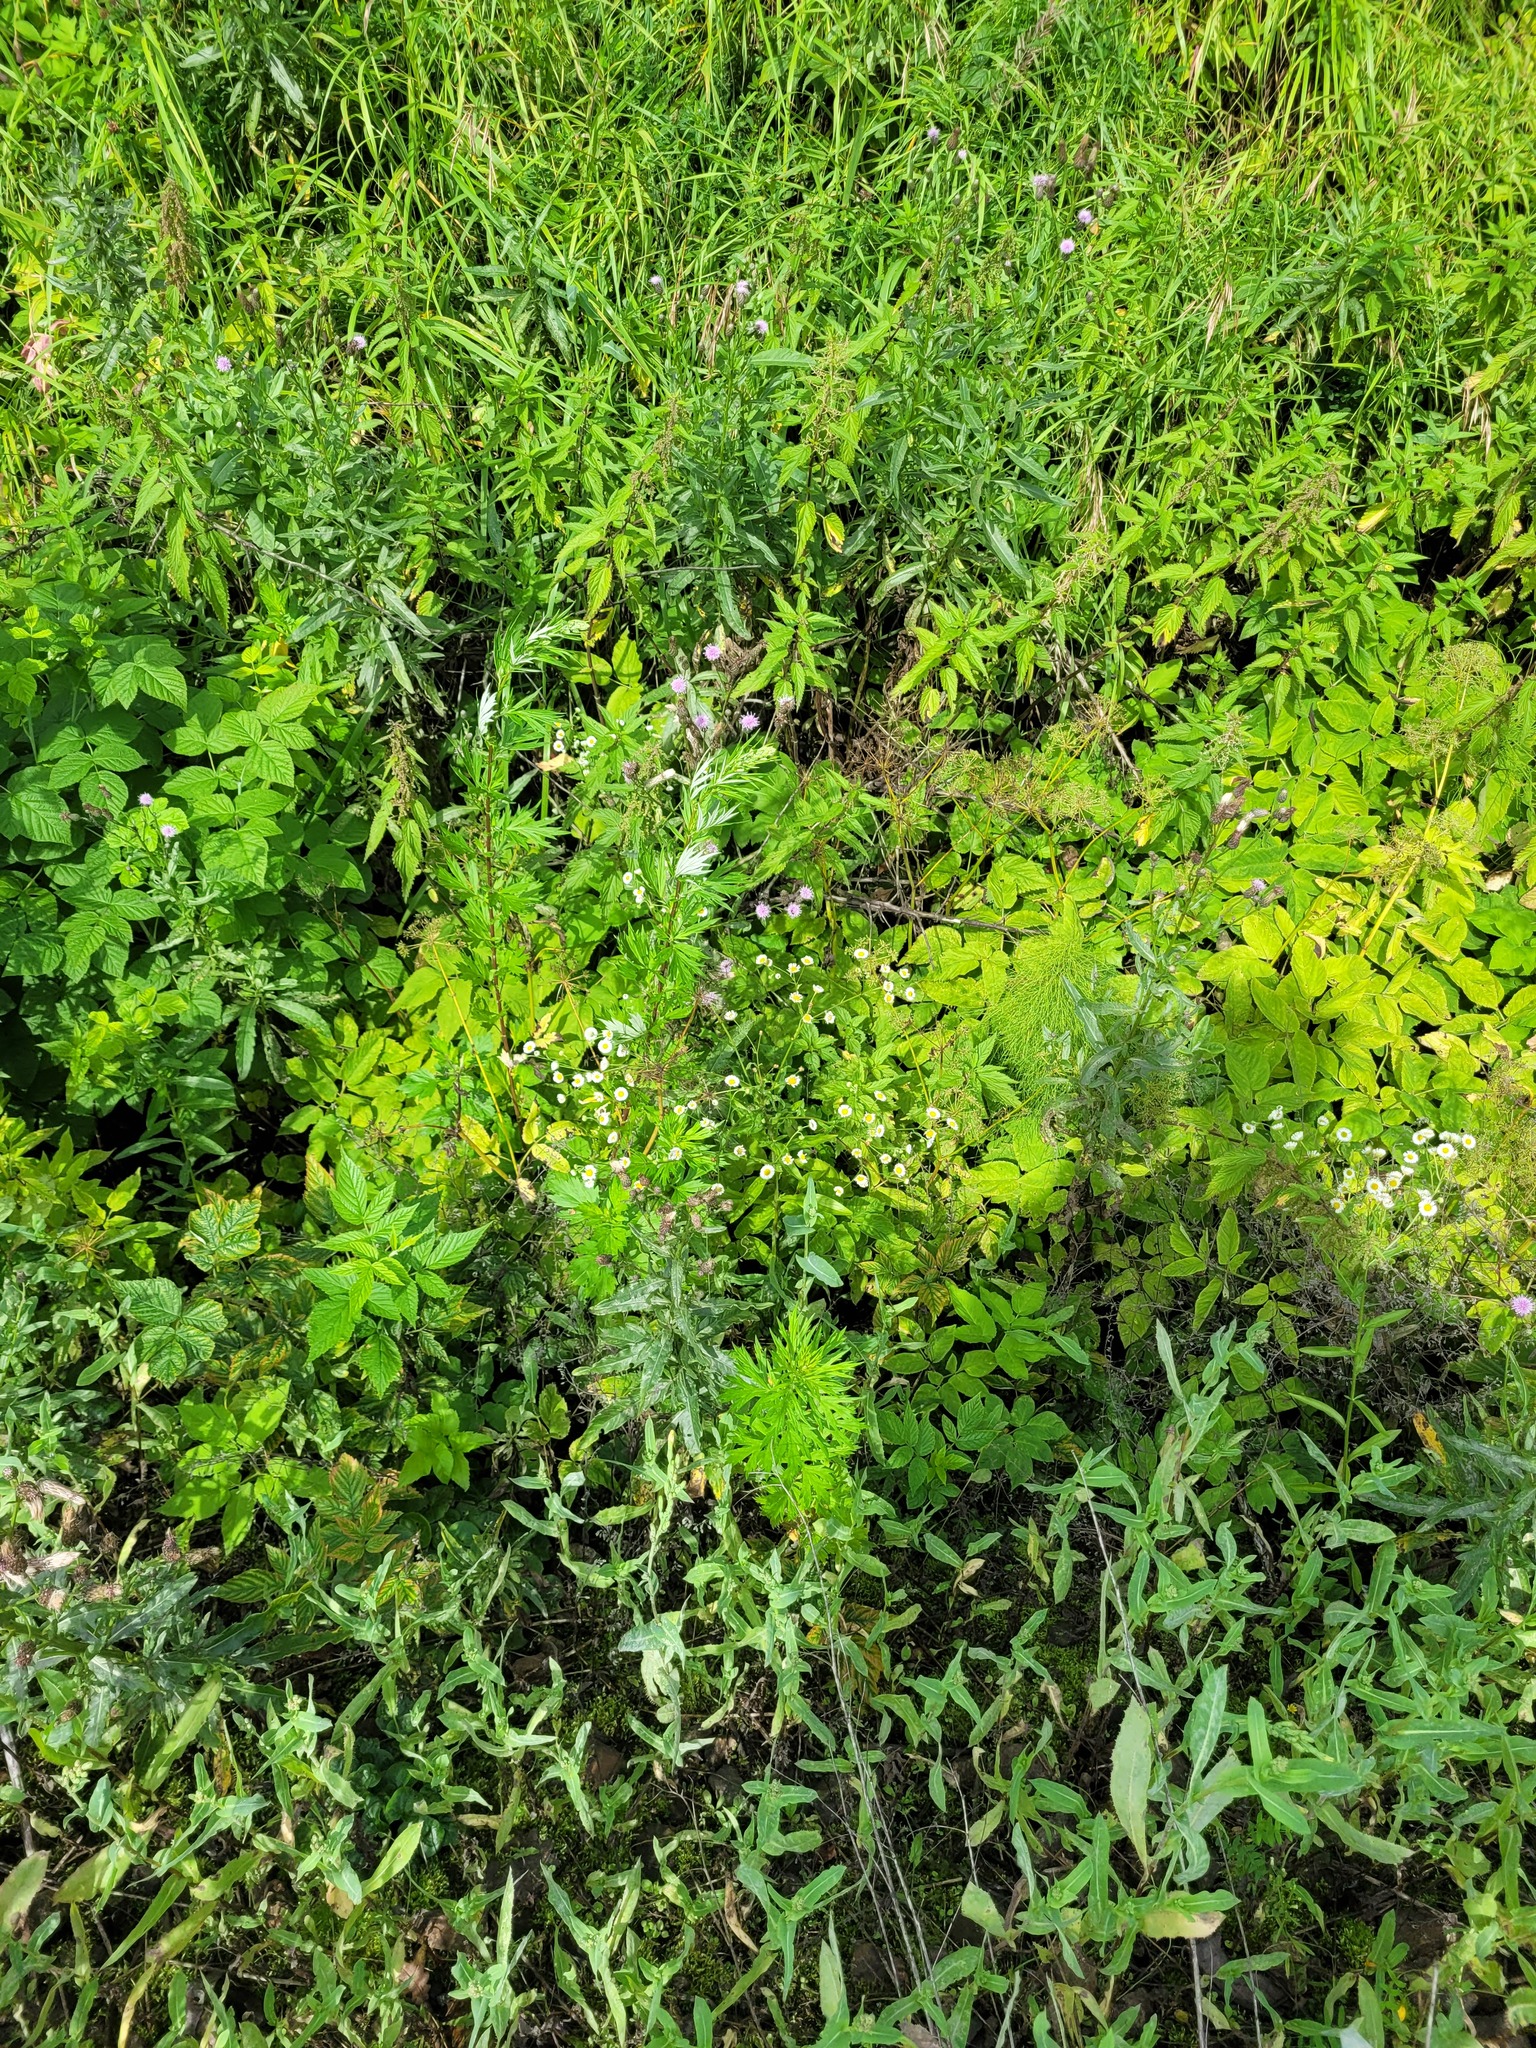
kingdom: Plantae
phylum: Tracheophyta
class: Magnoliopsida
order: Asterales
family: Asteraceae
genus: Erigeron
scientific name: Erigeron annuus
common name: Tall fleabane
